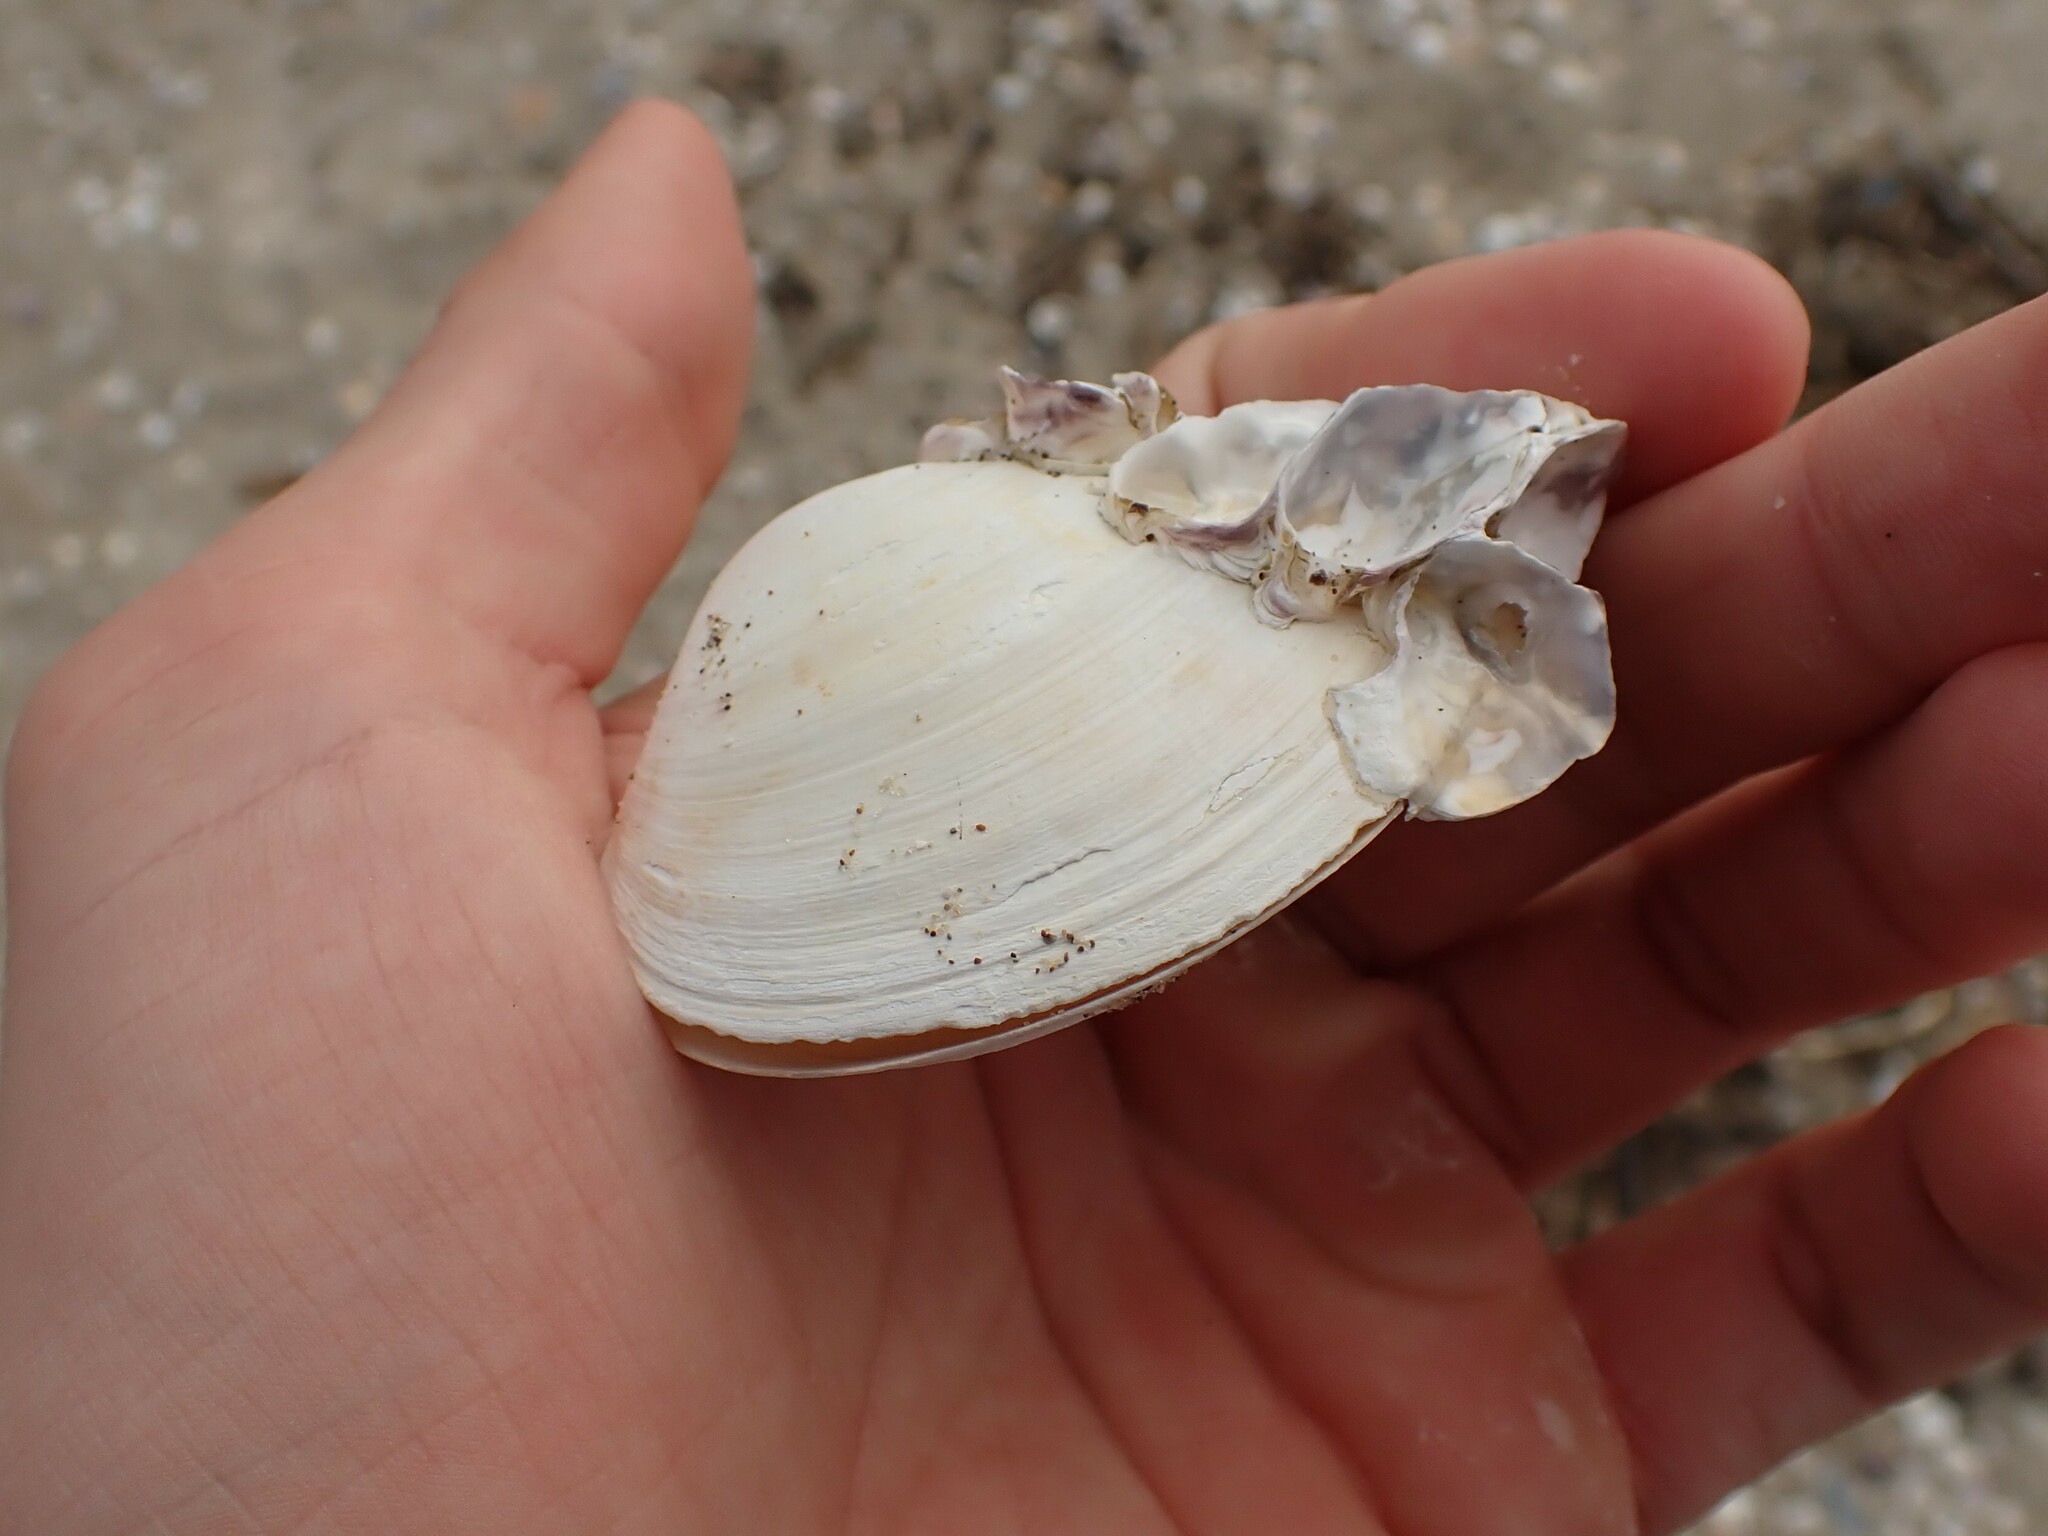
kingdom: Animalia
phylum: Mollusca
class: Bivalvia
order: Venerida
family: Mactridae
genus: Cyclomactra
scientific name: Cyclomactra ovata
